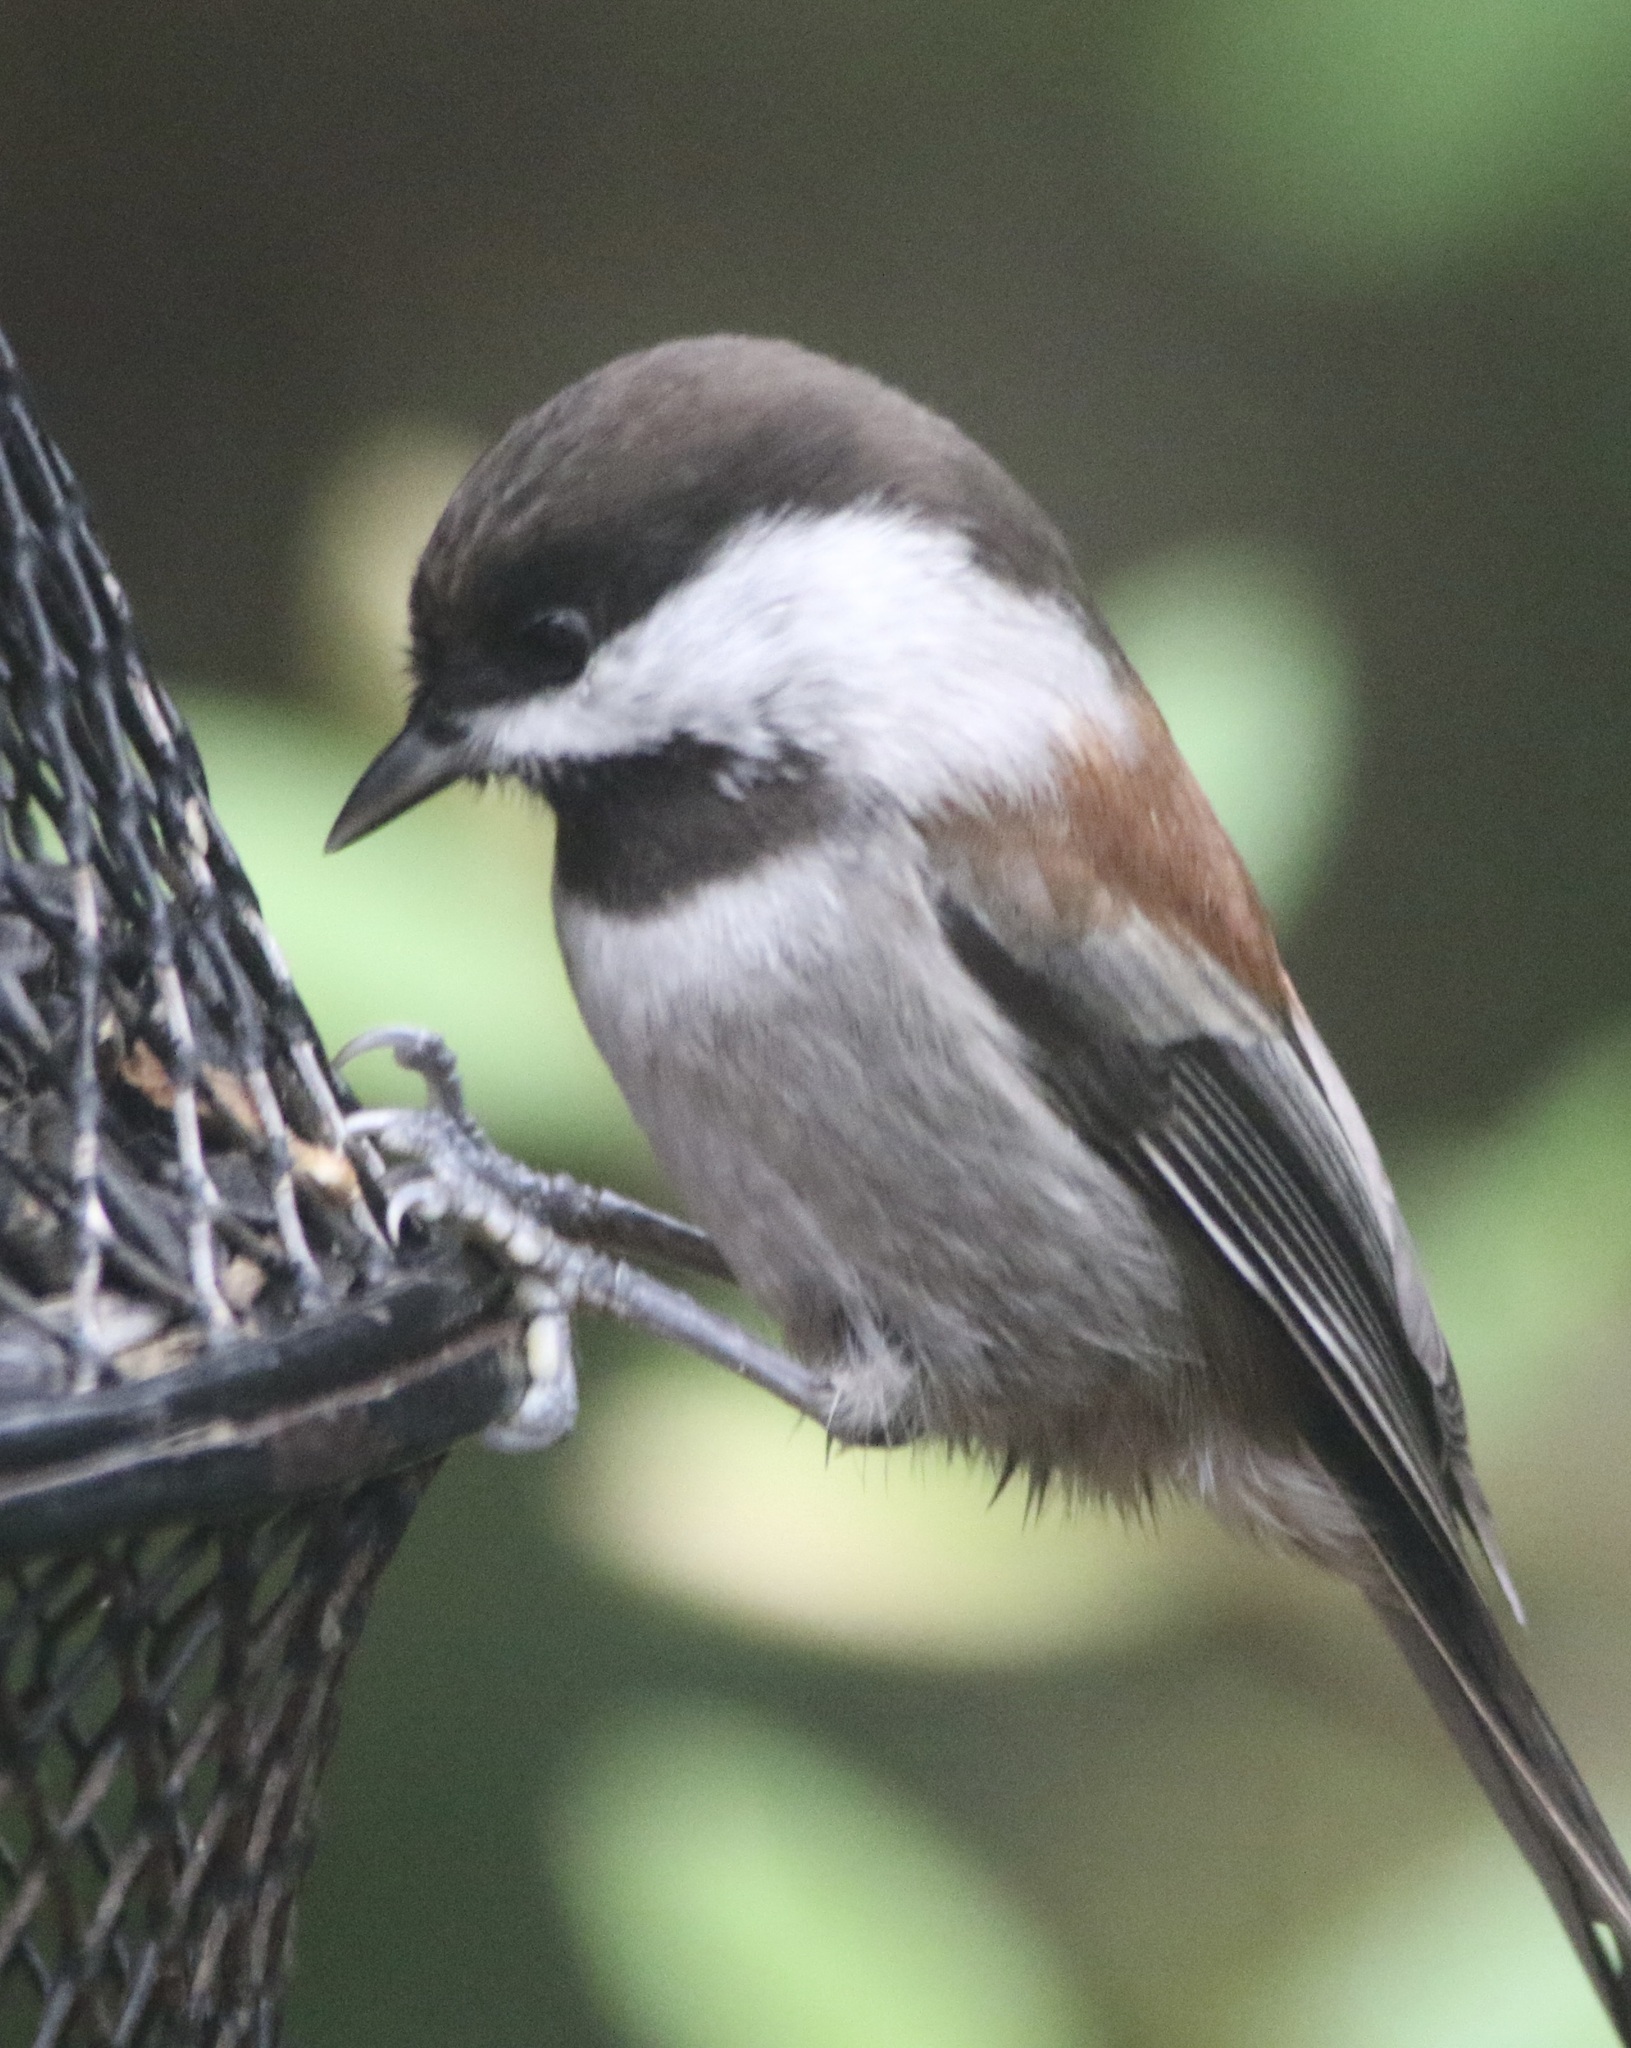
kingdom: Animalia
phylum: Chordata
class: Aves
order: Passeriformes
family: Paridae
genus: Poecile
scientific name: Poecile rufescens
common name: Chestnut-backed chickadee
